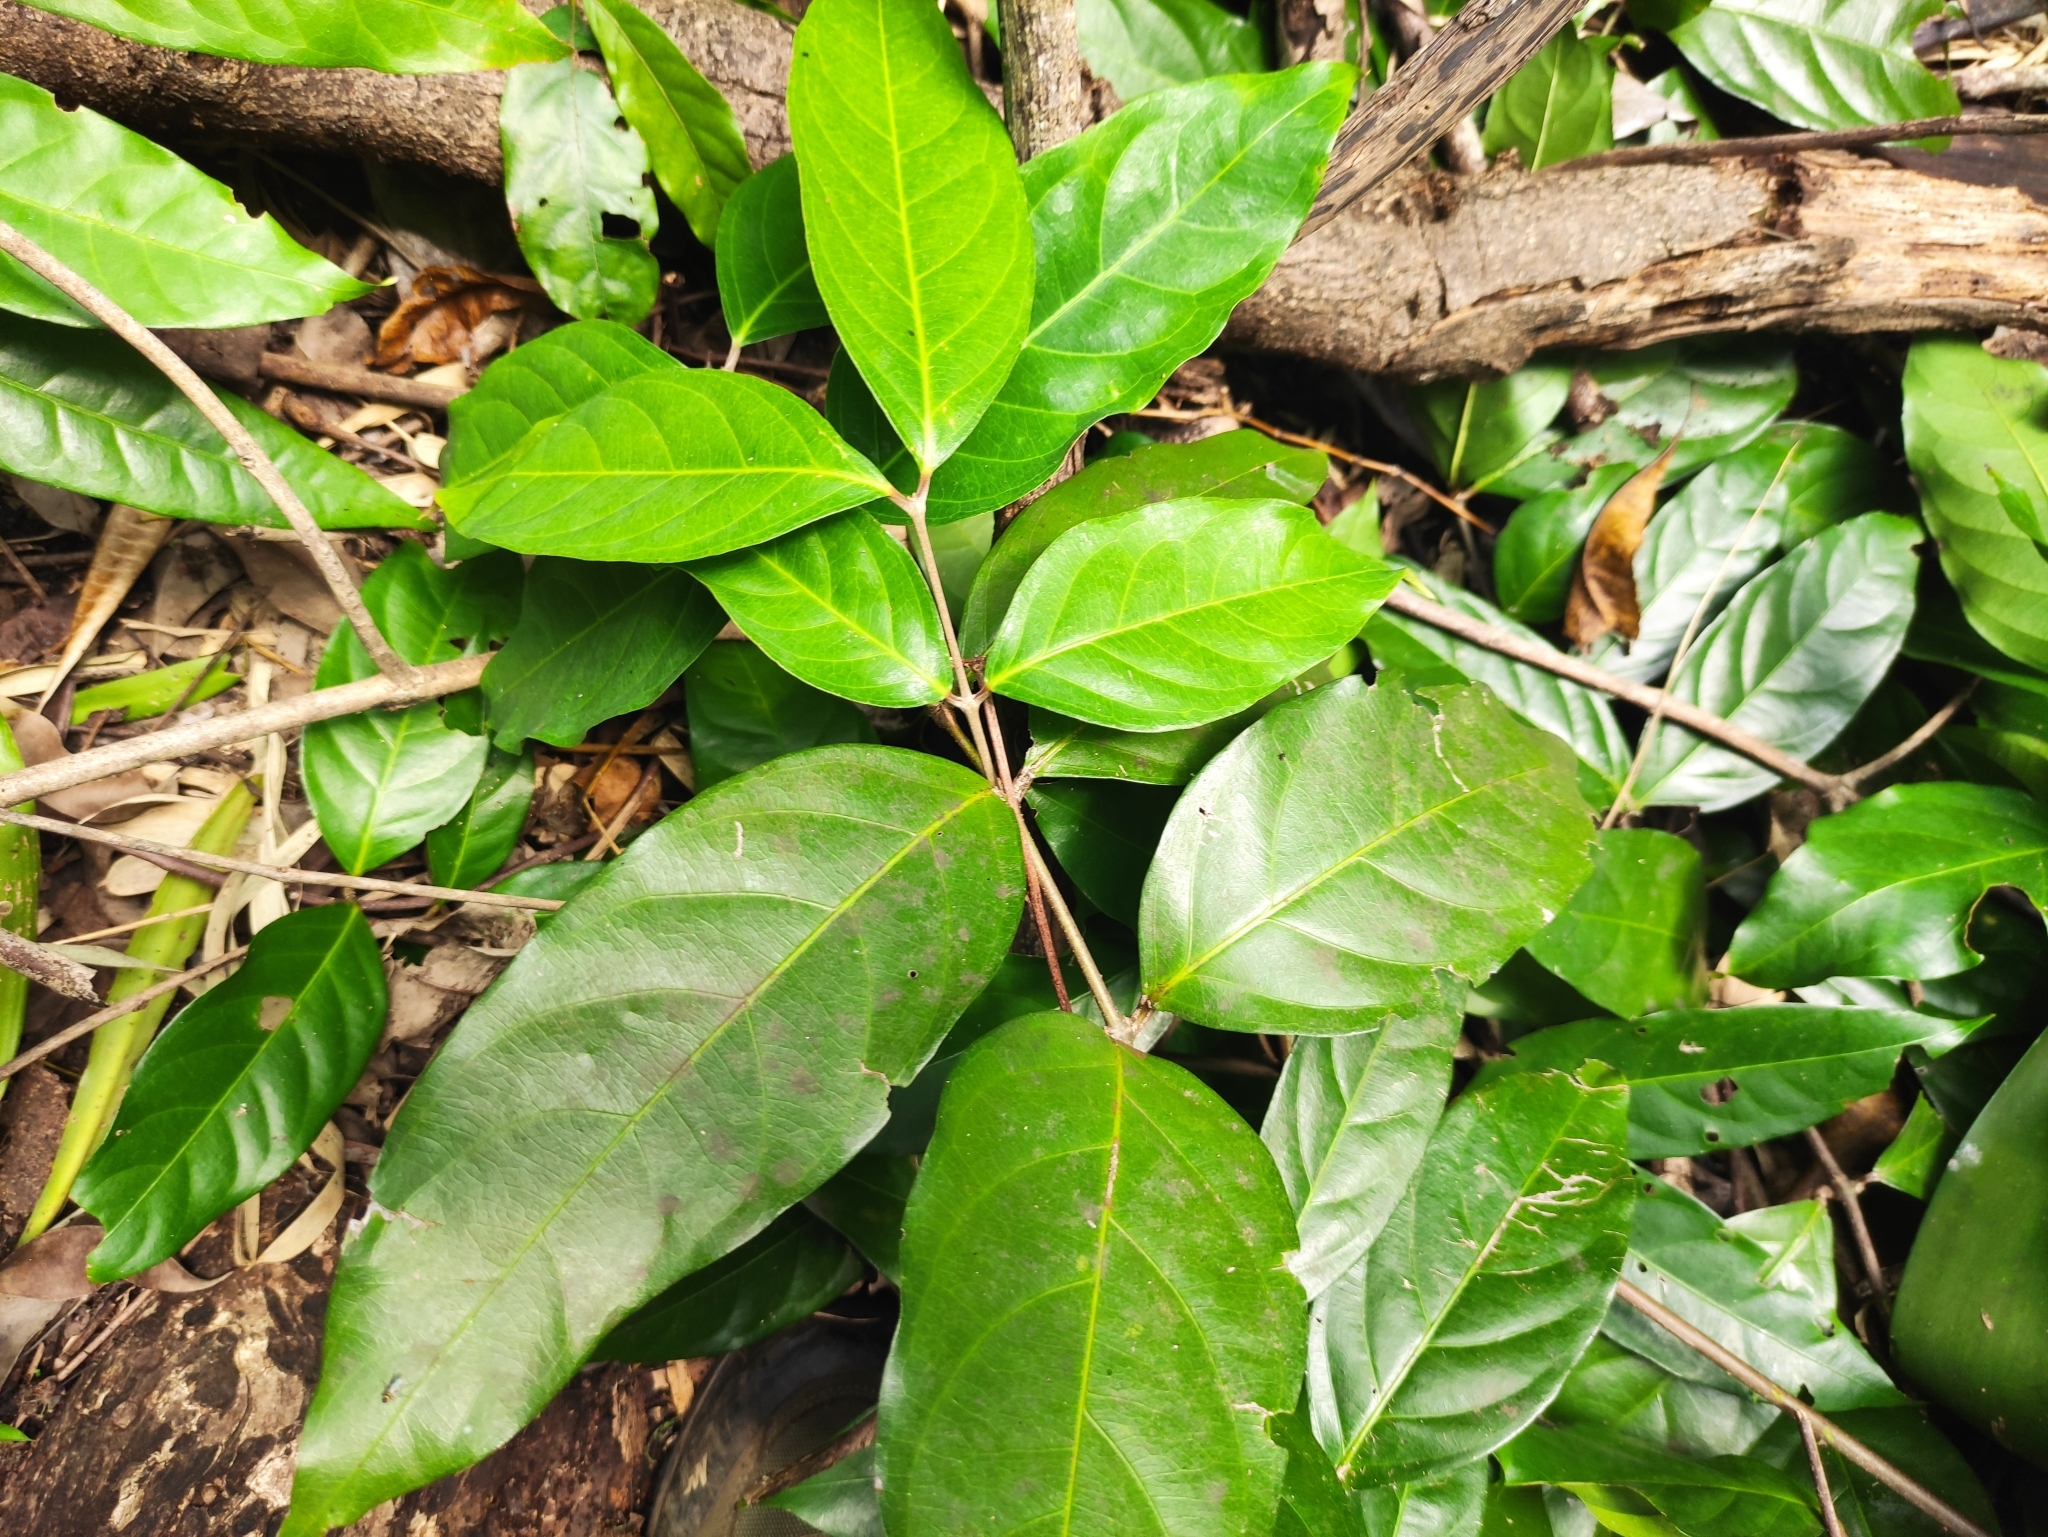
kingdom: Plantae
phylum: Tracheophyta
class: Magnoliopsida
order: Malpighiales
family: Malpighiaceae
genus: Hiptage
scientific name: Hiptage benghalensis
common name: Hiptage
